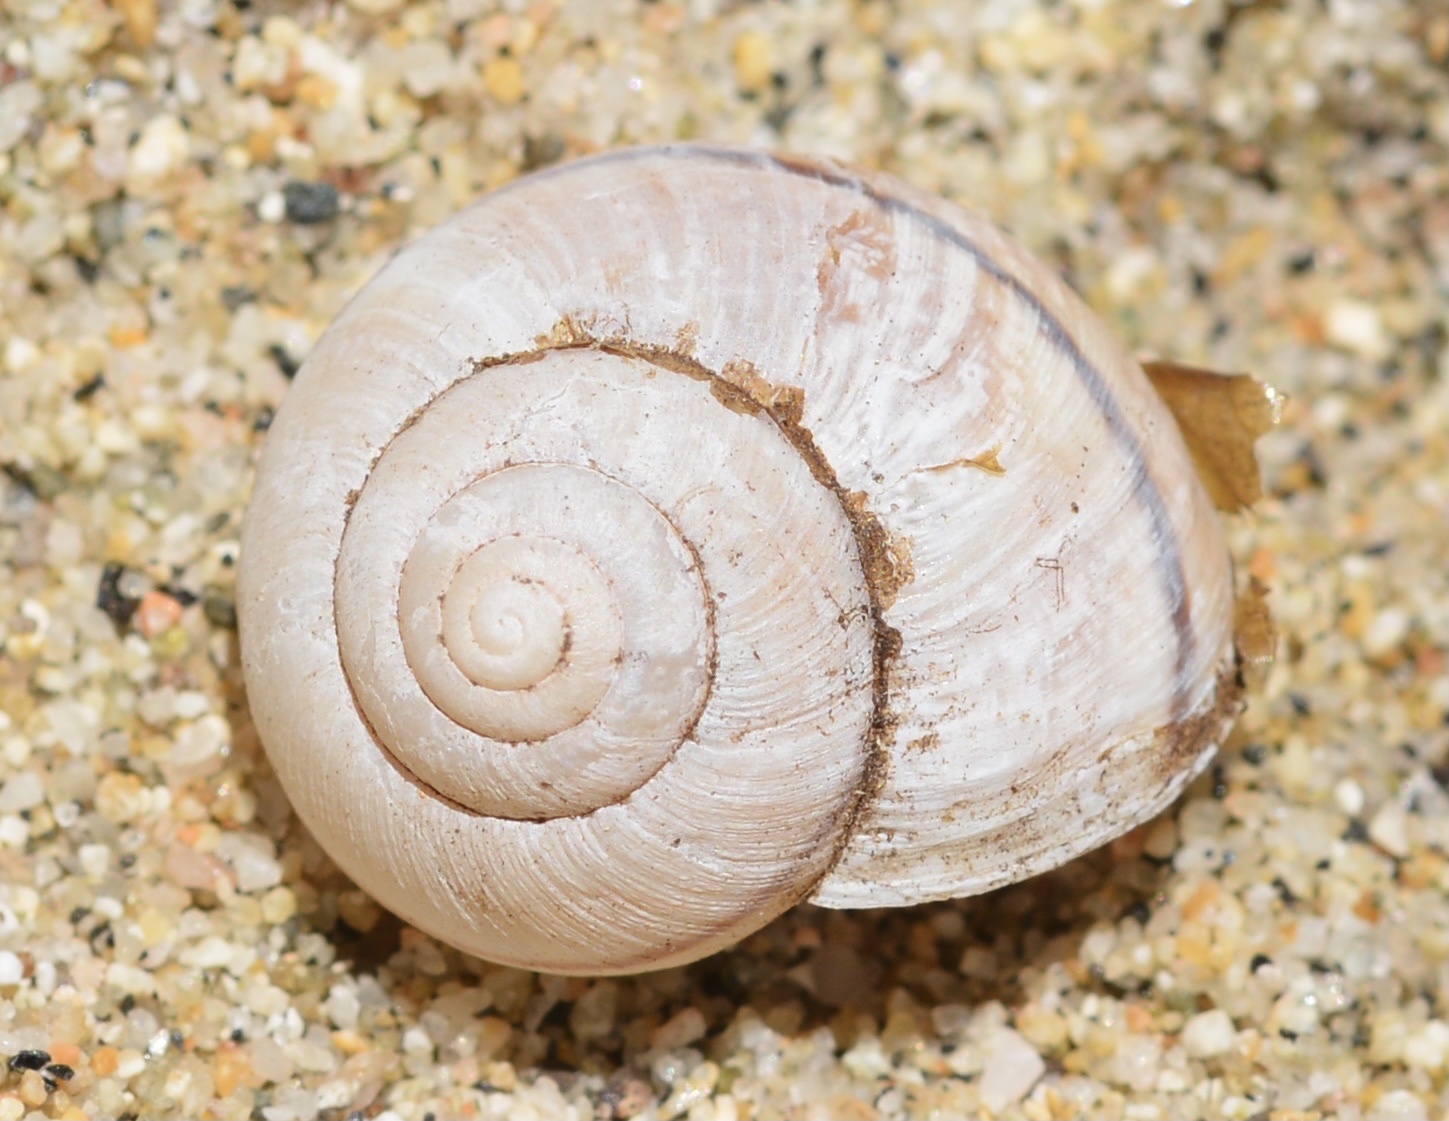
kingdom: Animalia
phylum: Mollusca
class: Gastropoda
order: Stylommatophora
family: Xanthonychidae
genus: Helminthoglypta
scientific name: Helminthoglypta californiensis
